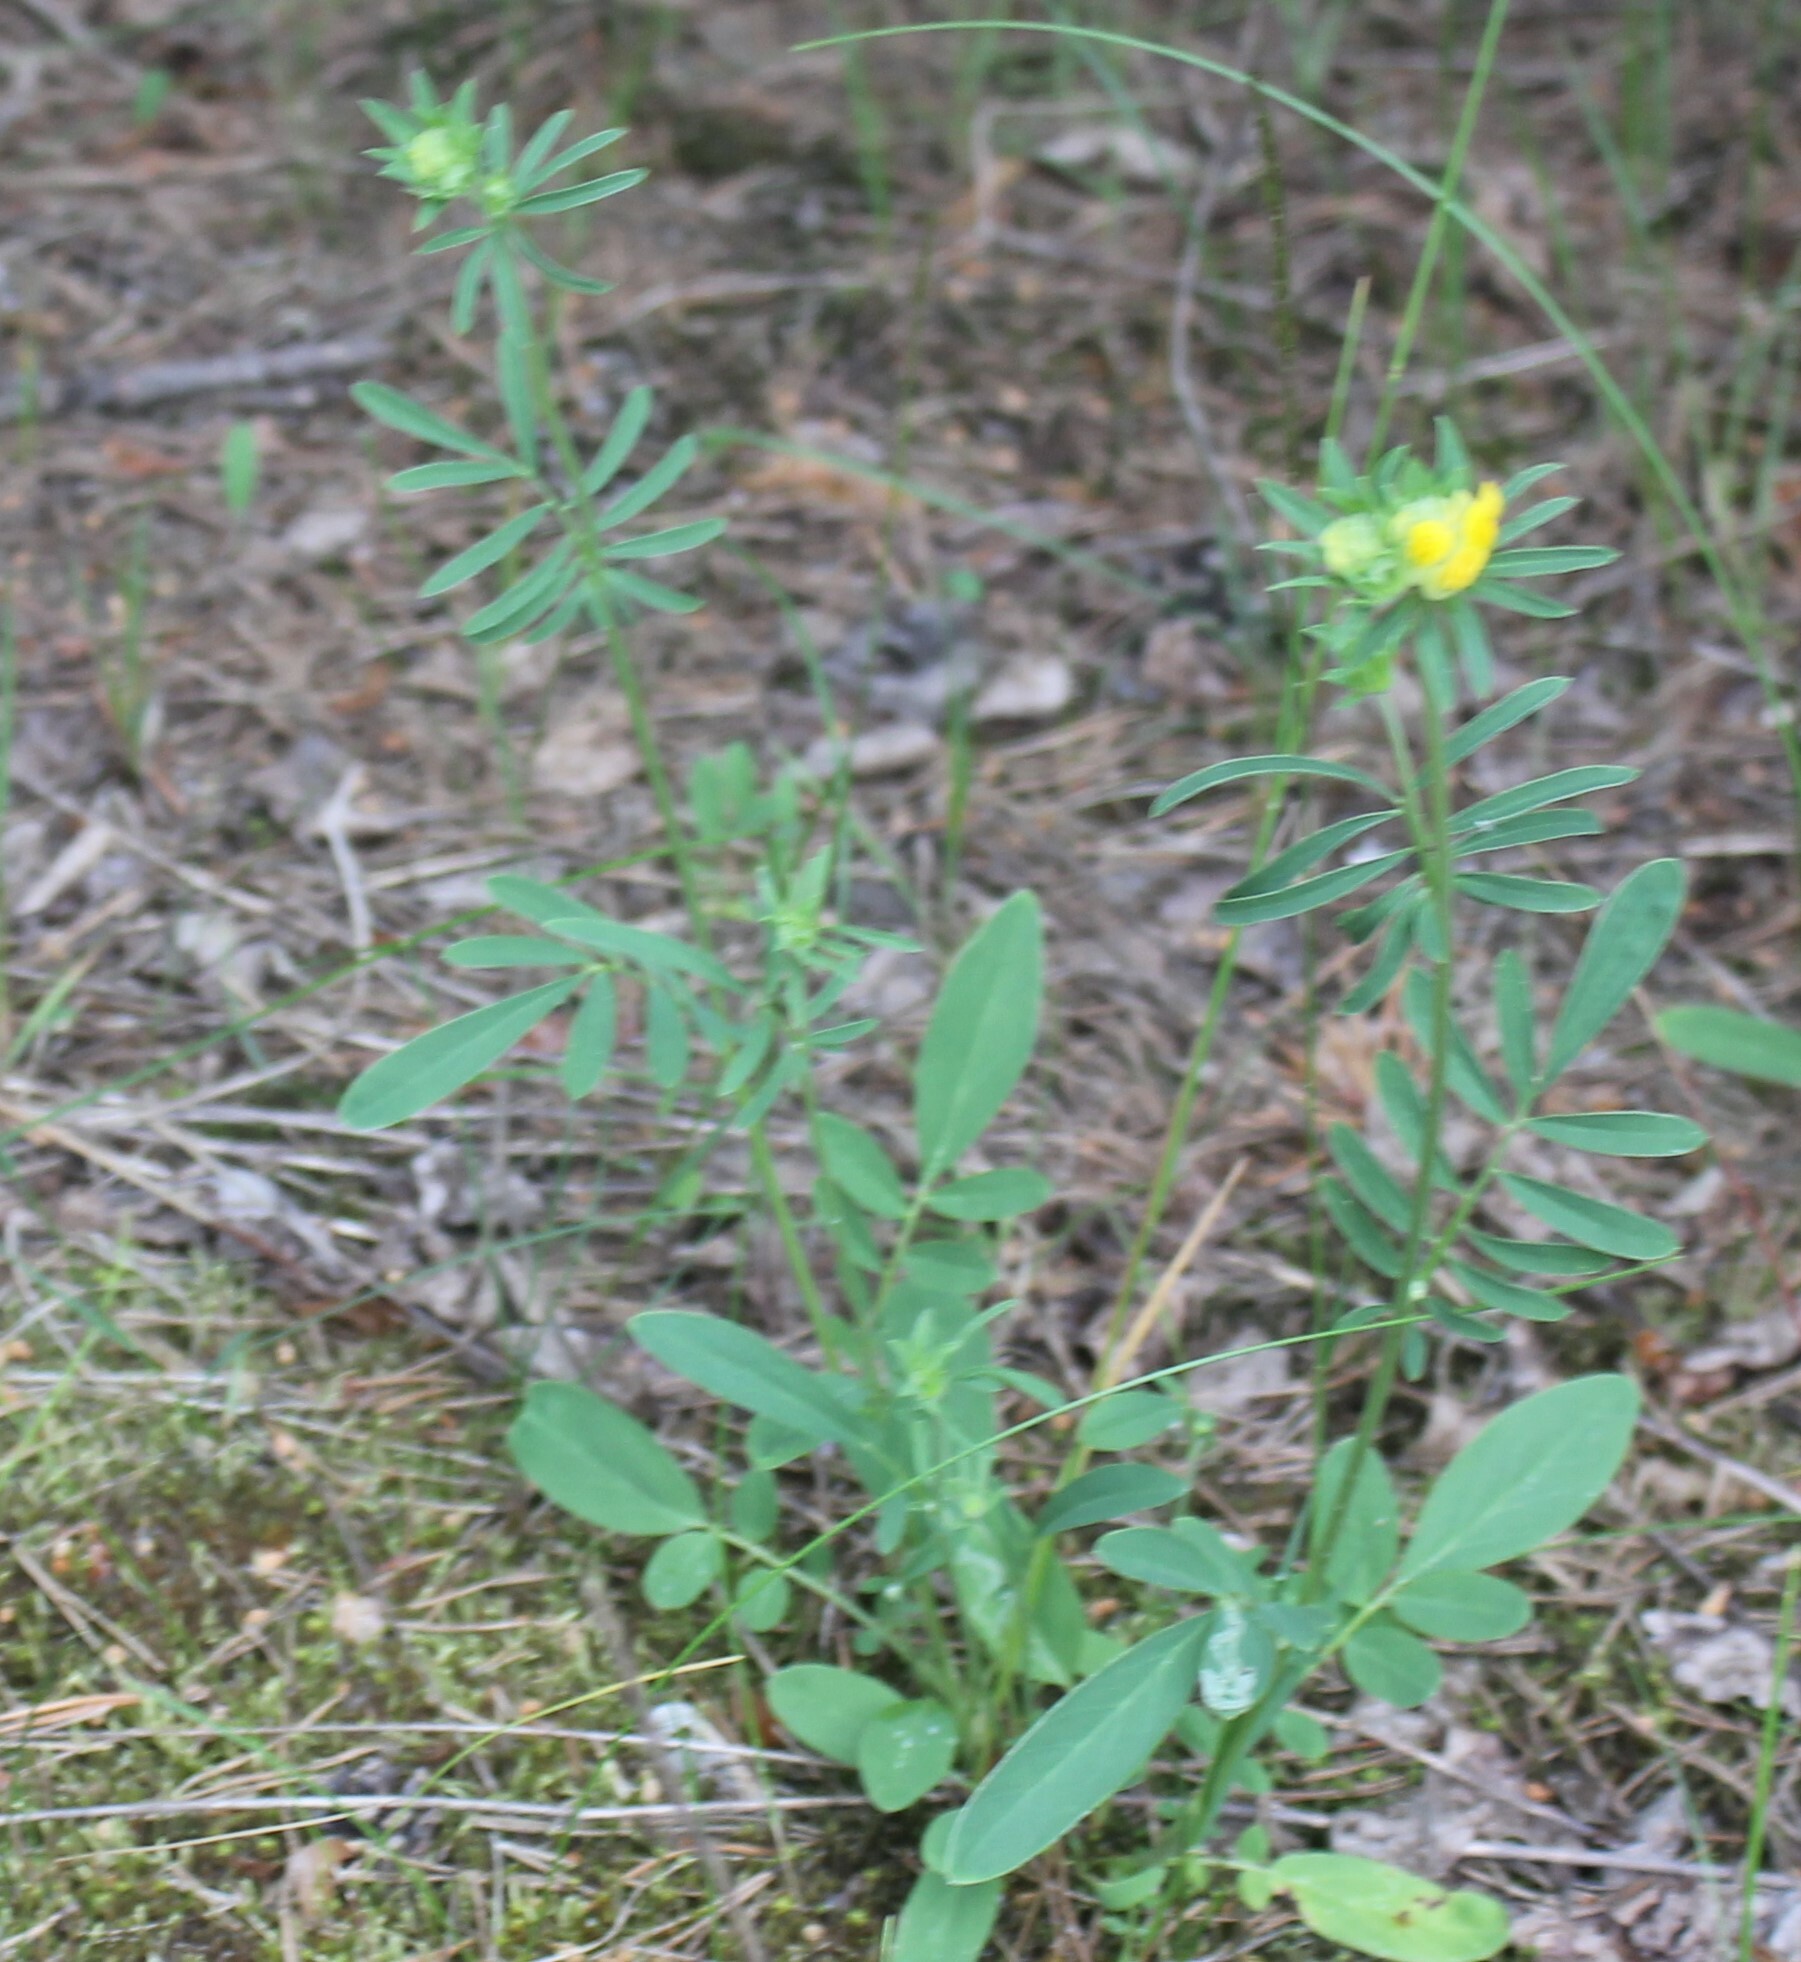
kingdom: Plantae
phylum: Tracheophyta
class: Magnoliopsida
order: Fabales
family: Fabaceae
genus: Anthyllis
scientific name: Anthyllis vulneraria
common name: Kidney vetch
